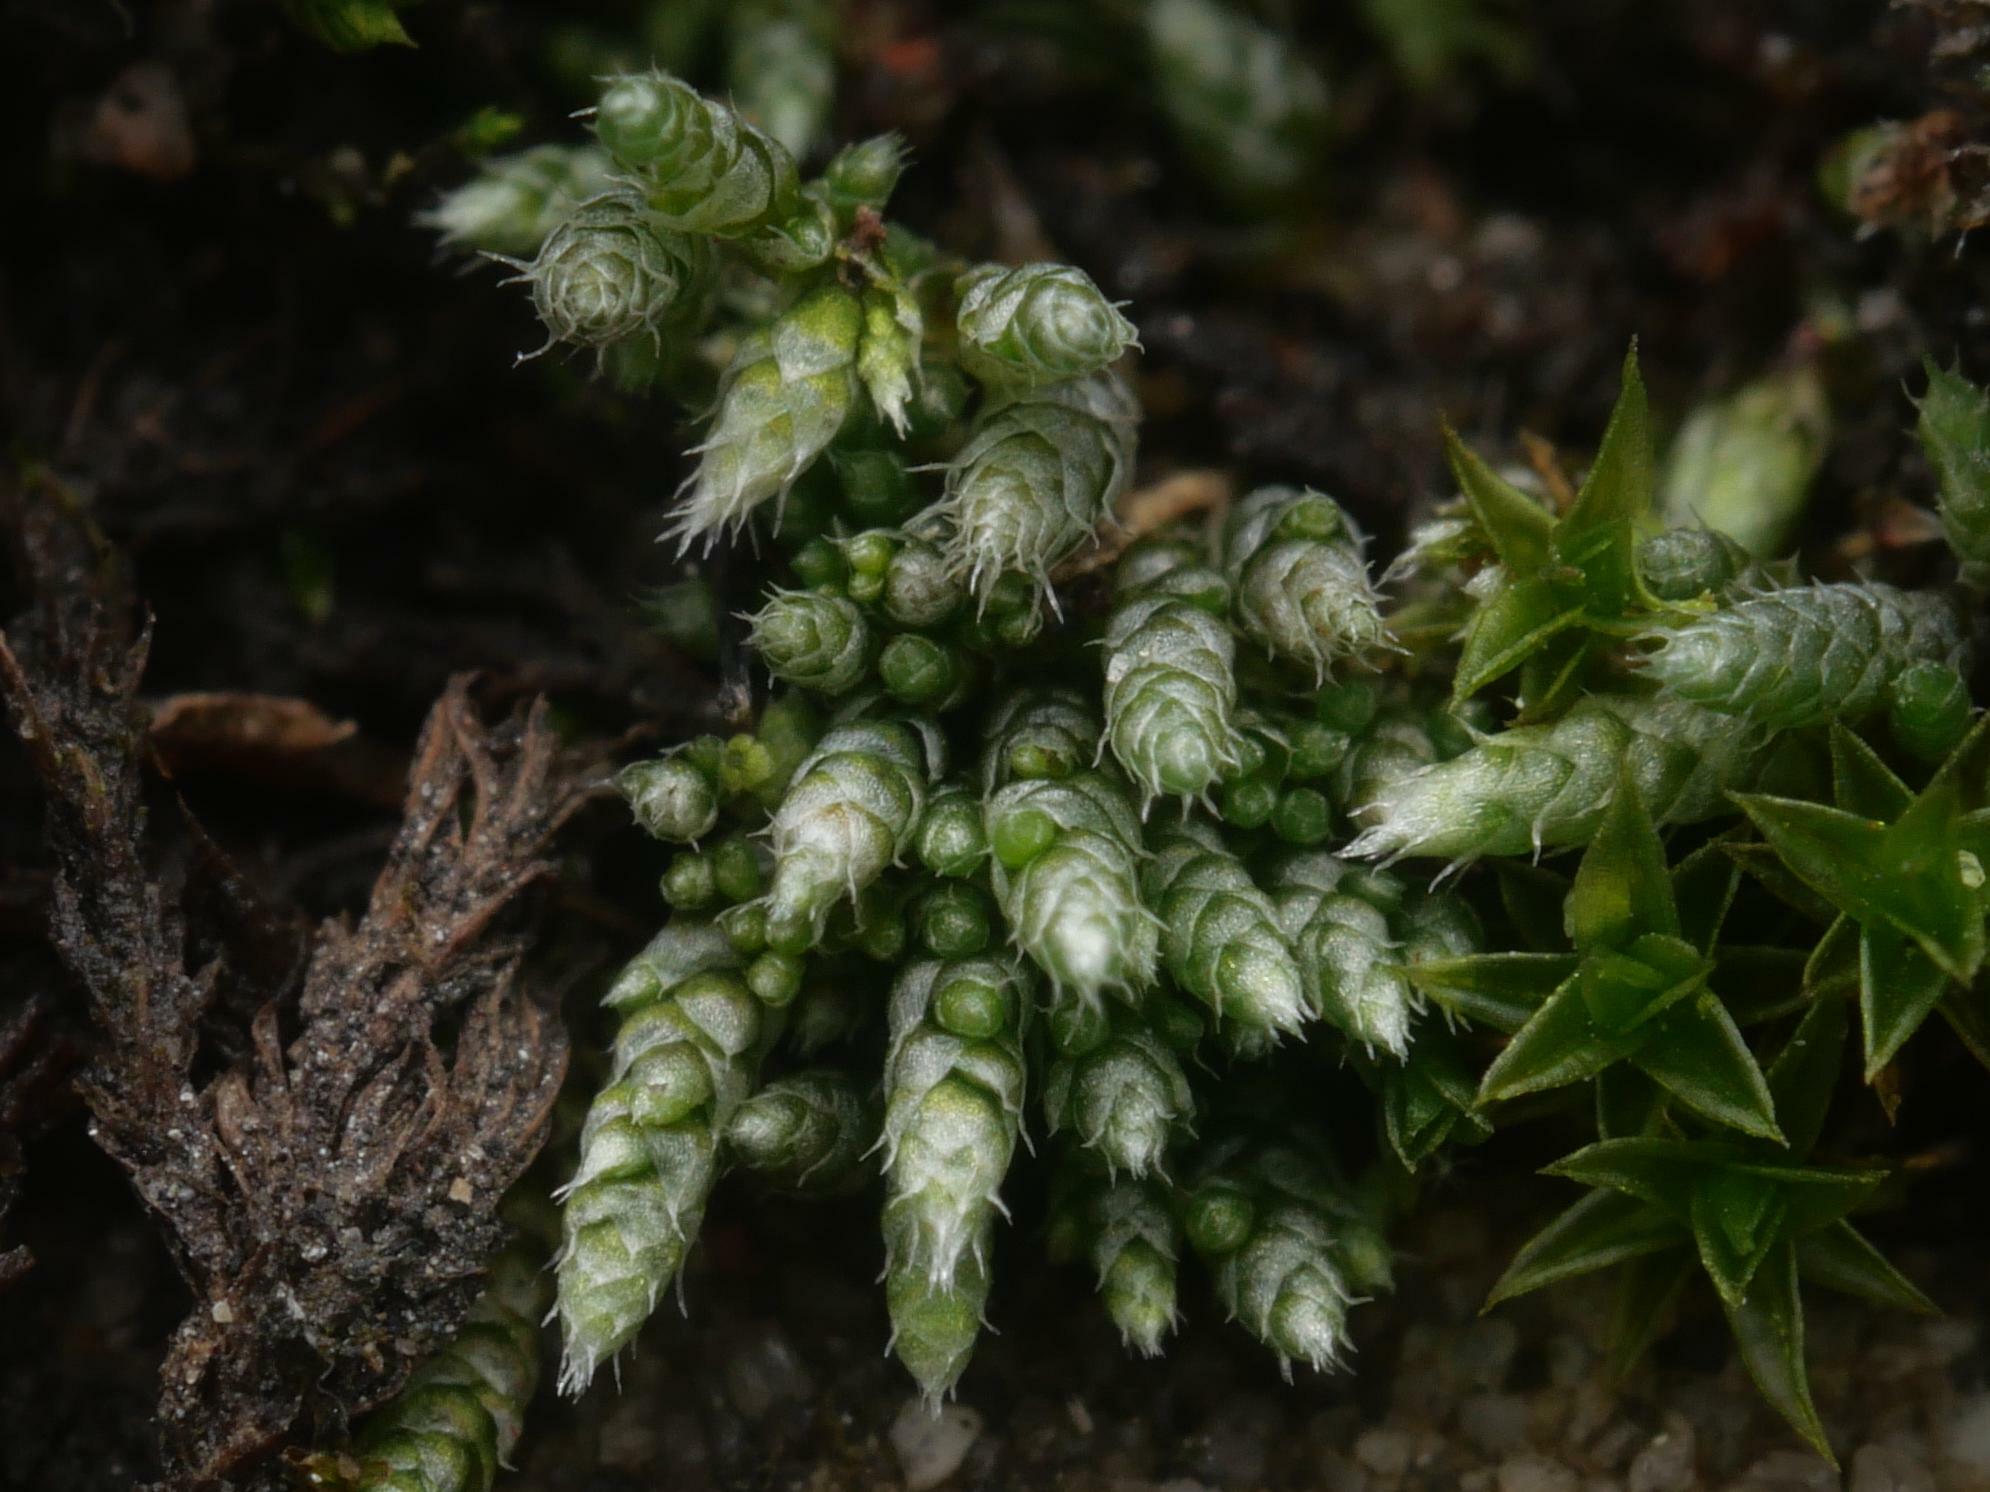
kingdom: Plantae
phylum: Bryophyta
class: Bryopsida
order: Bryales
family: Bryaceae
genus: Bryum
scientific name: Bryum argenteum
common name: Silver-moss
